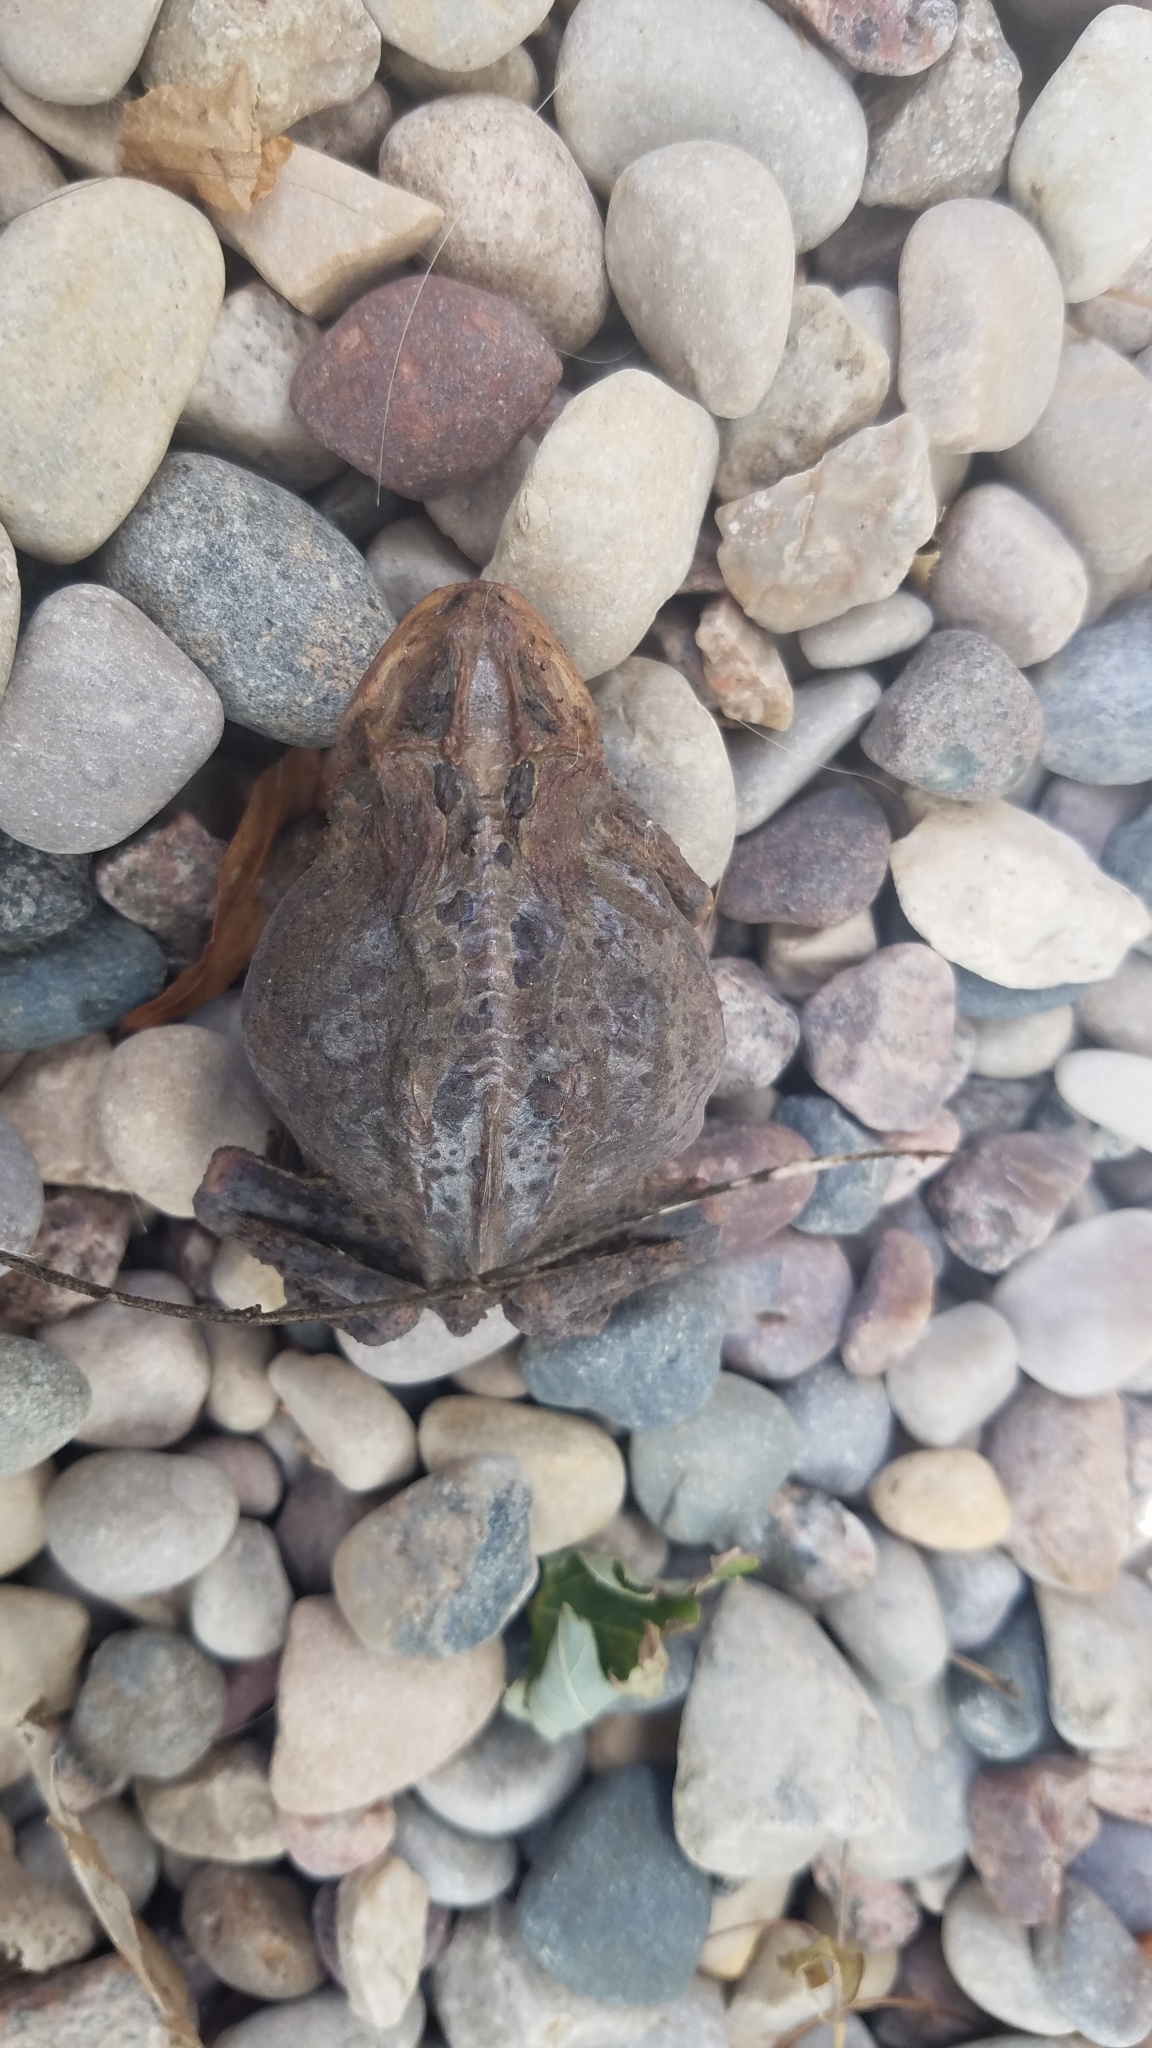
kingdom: Animalia
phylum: Chordata
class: Amphibia
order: Anura
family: Bufonidae
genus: Anaxyrus
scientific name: Anaxyrus americanus
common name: American toad
